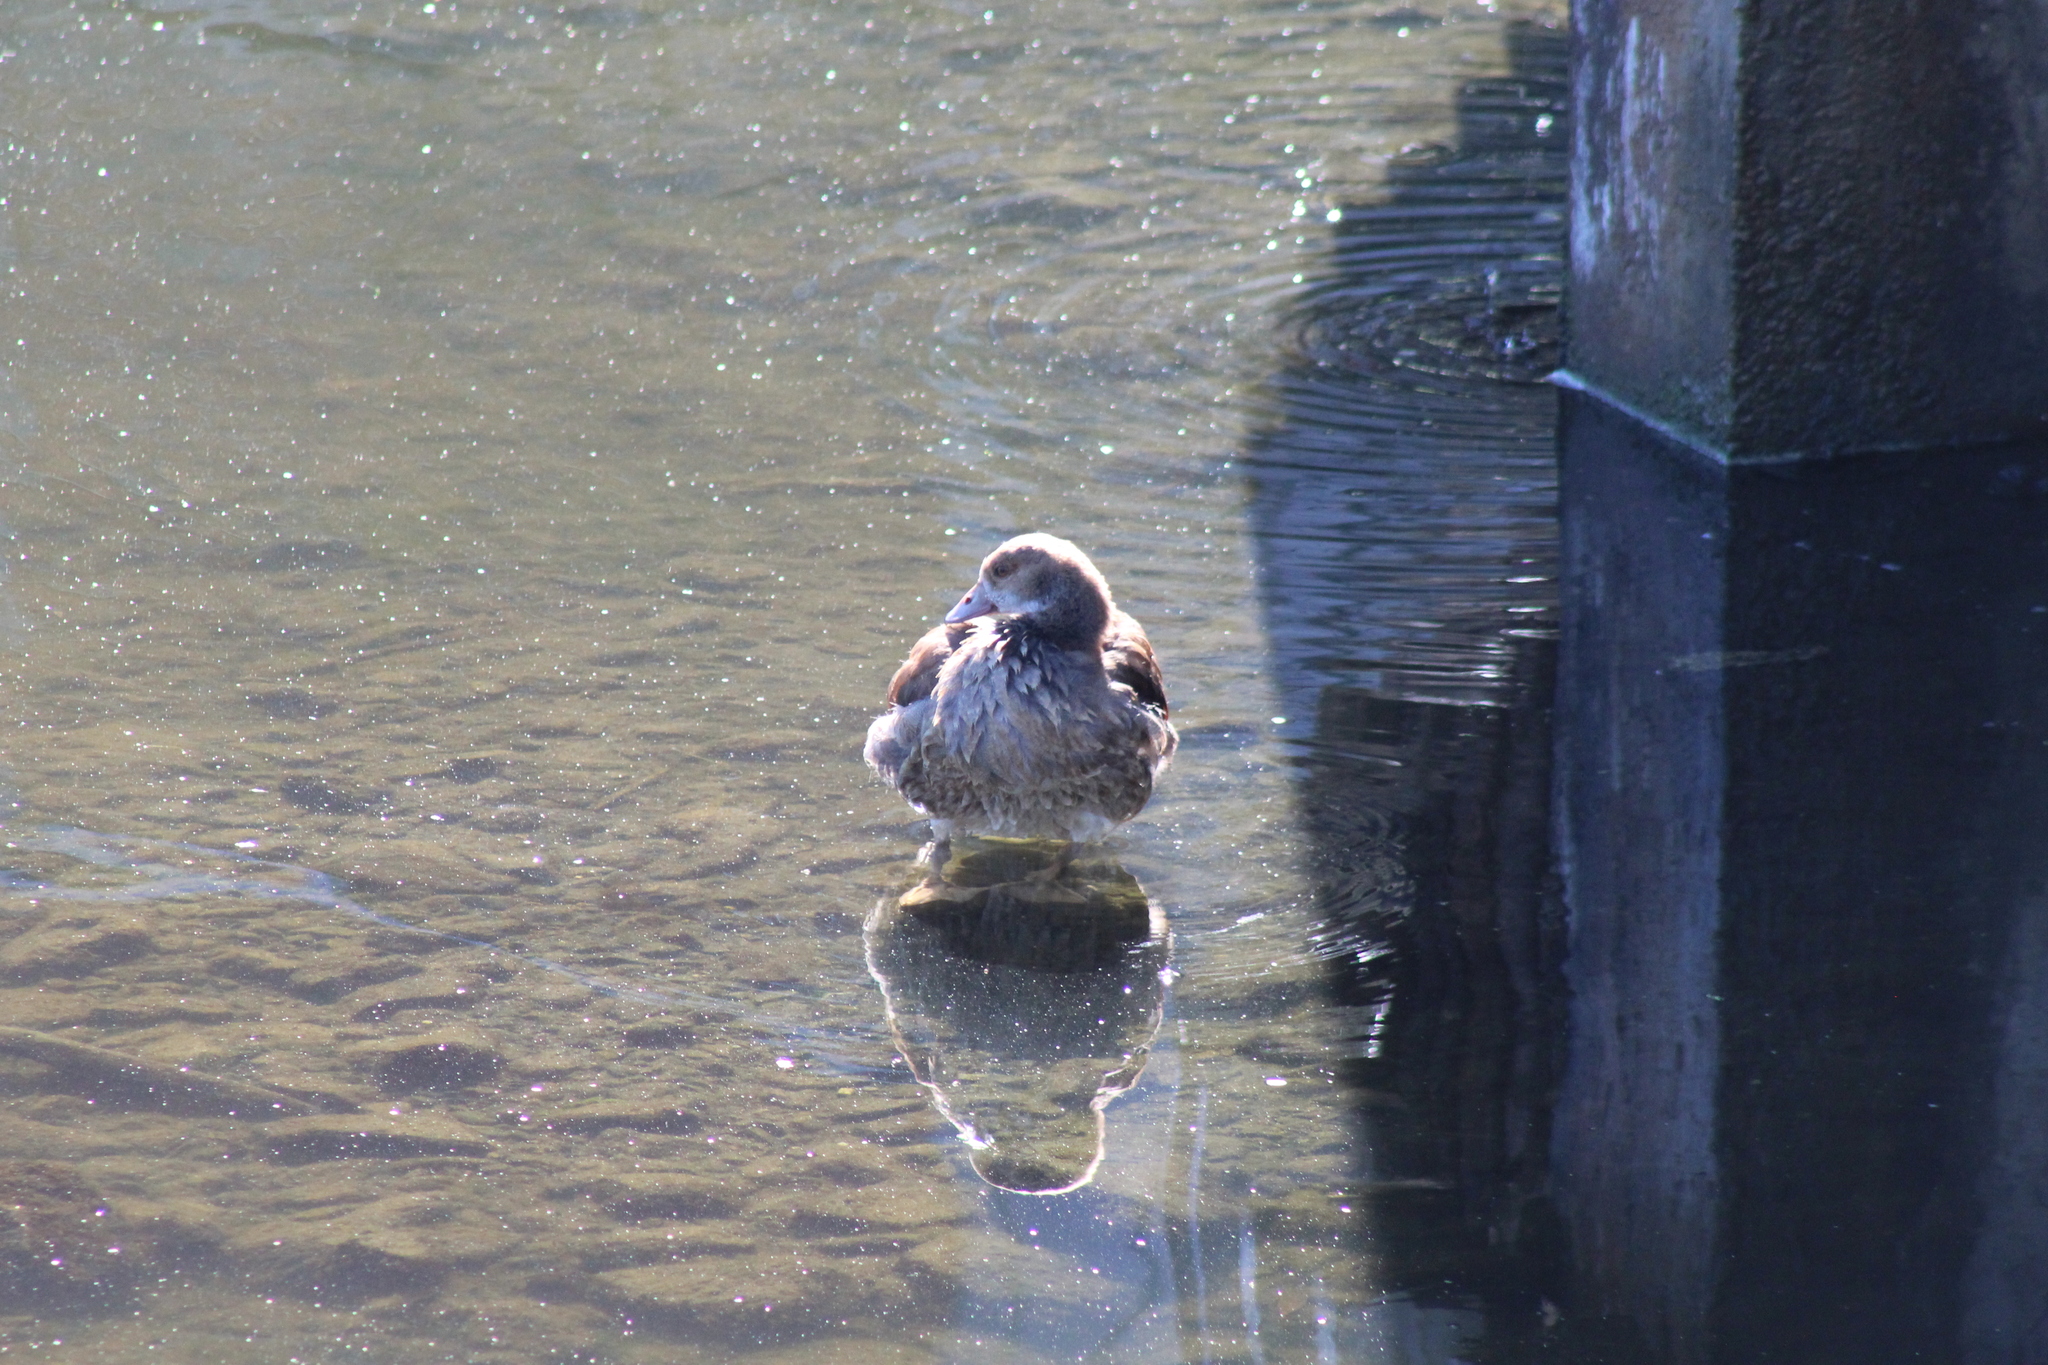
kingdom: Animalia
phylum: Chordata
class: Aves
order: Anseriformes
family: Anatidae
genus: Alopochen
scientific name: Alopochen aegyptiaca
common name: Egyptian goose
